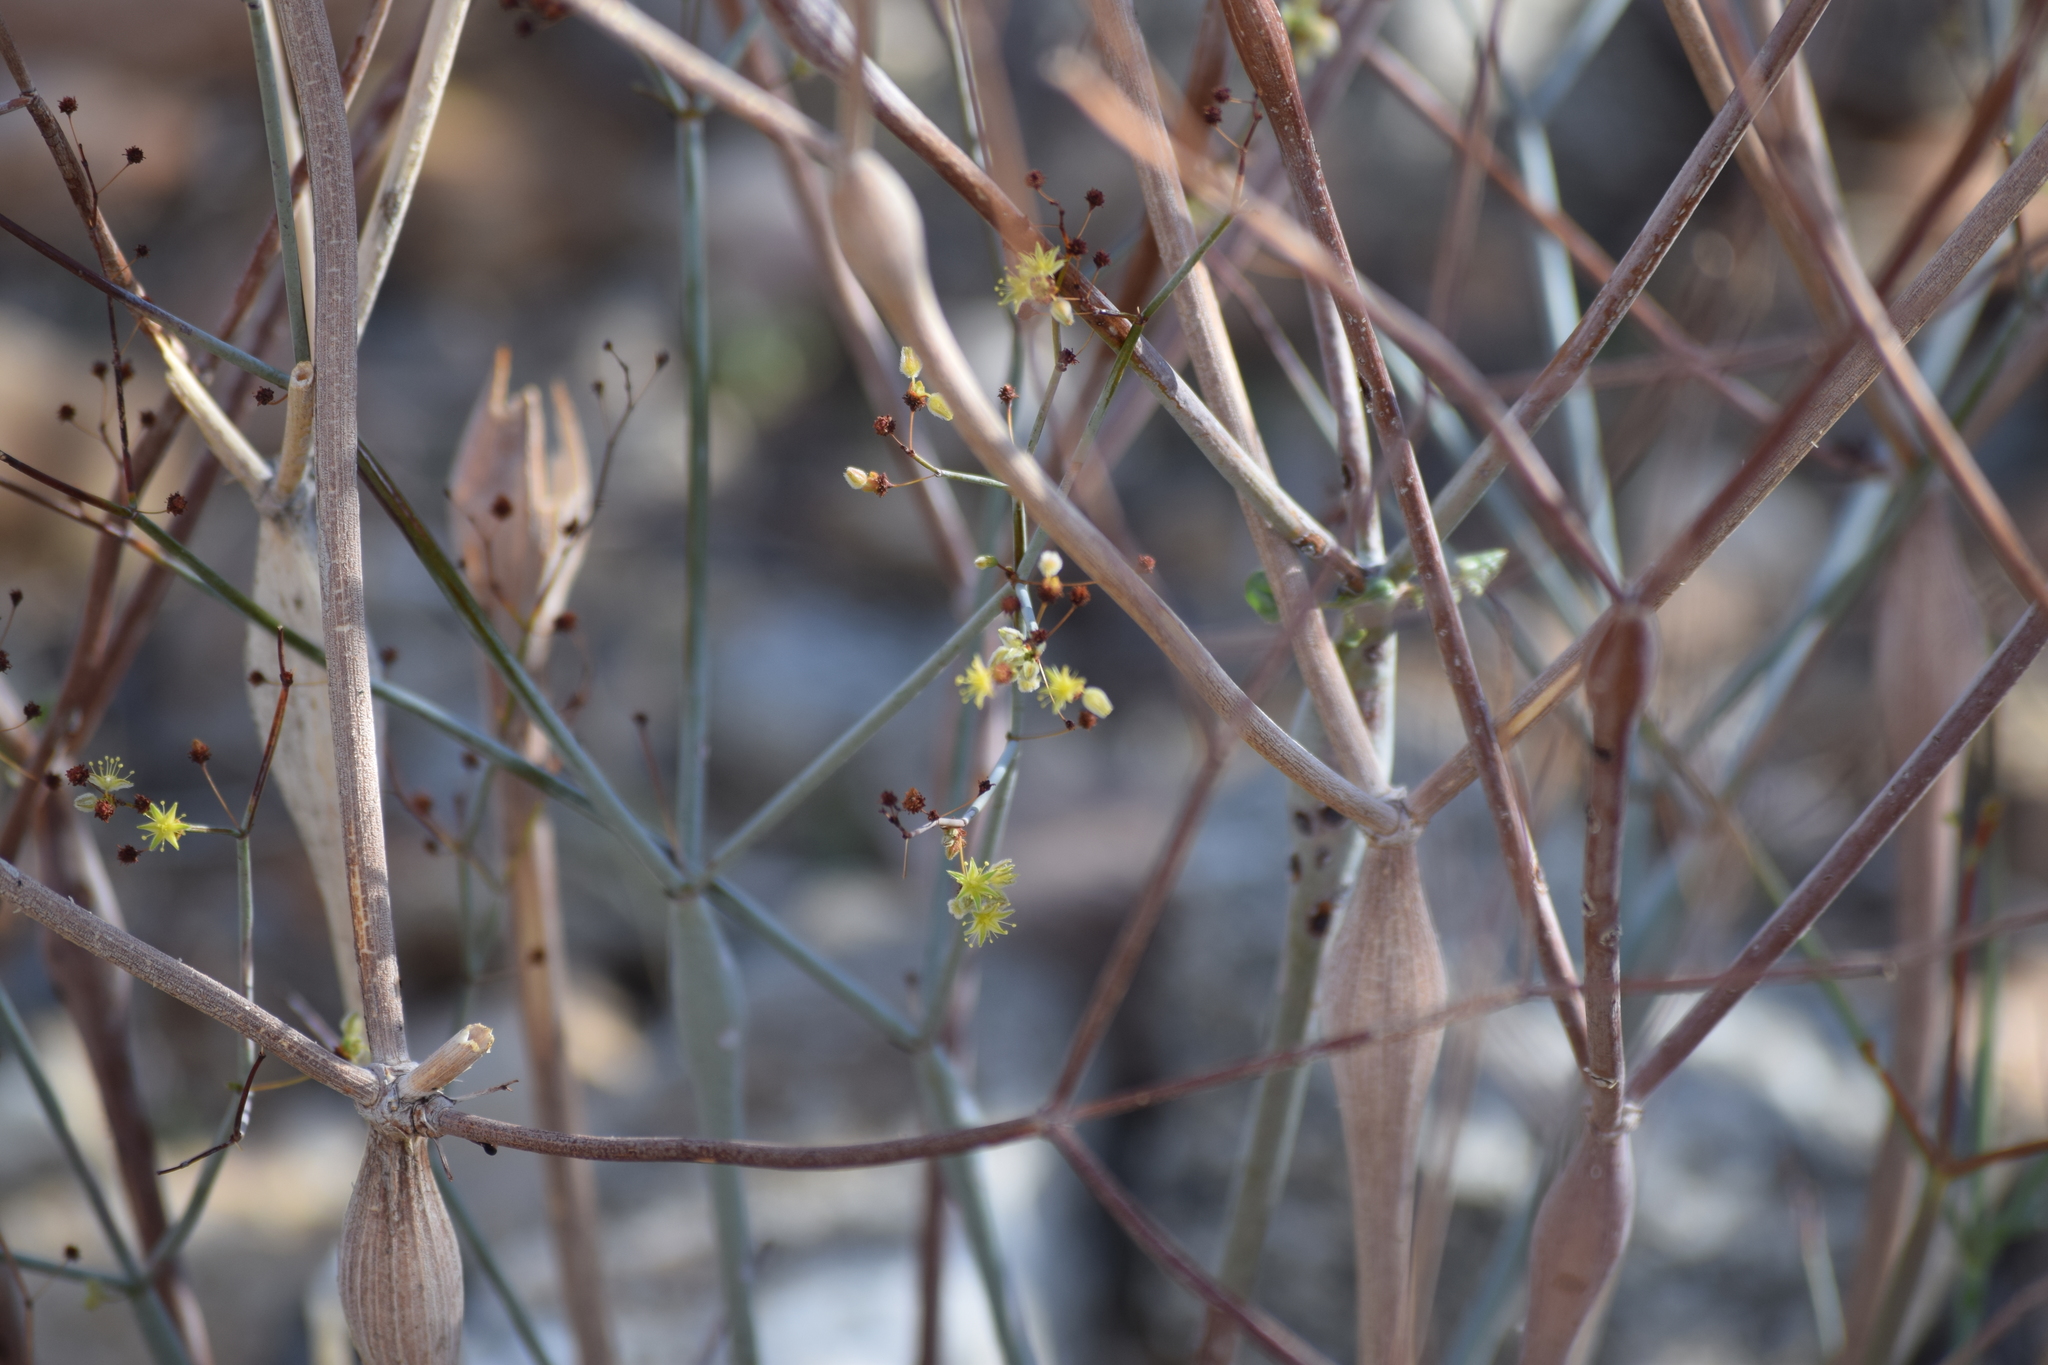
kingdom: Plantae
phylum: Tracheophyta
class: Magnoliopsida
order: Caryophyllales
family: Polygonaceae
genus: Eriogonum
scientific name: Eriogonum inflatum
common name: Desert trumpet
